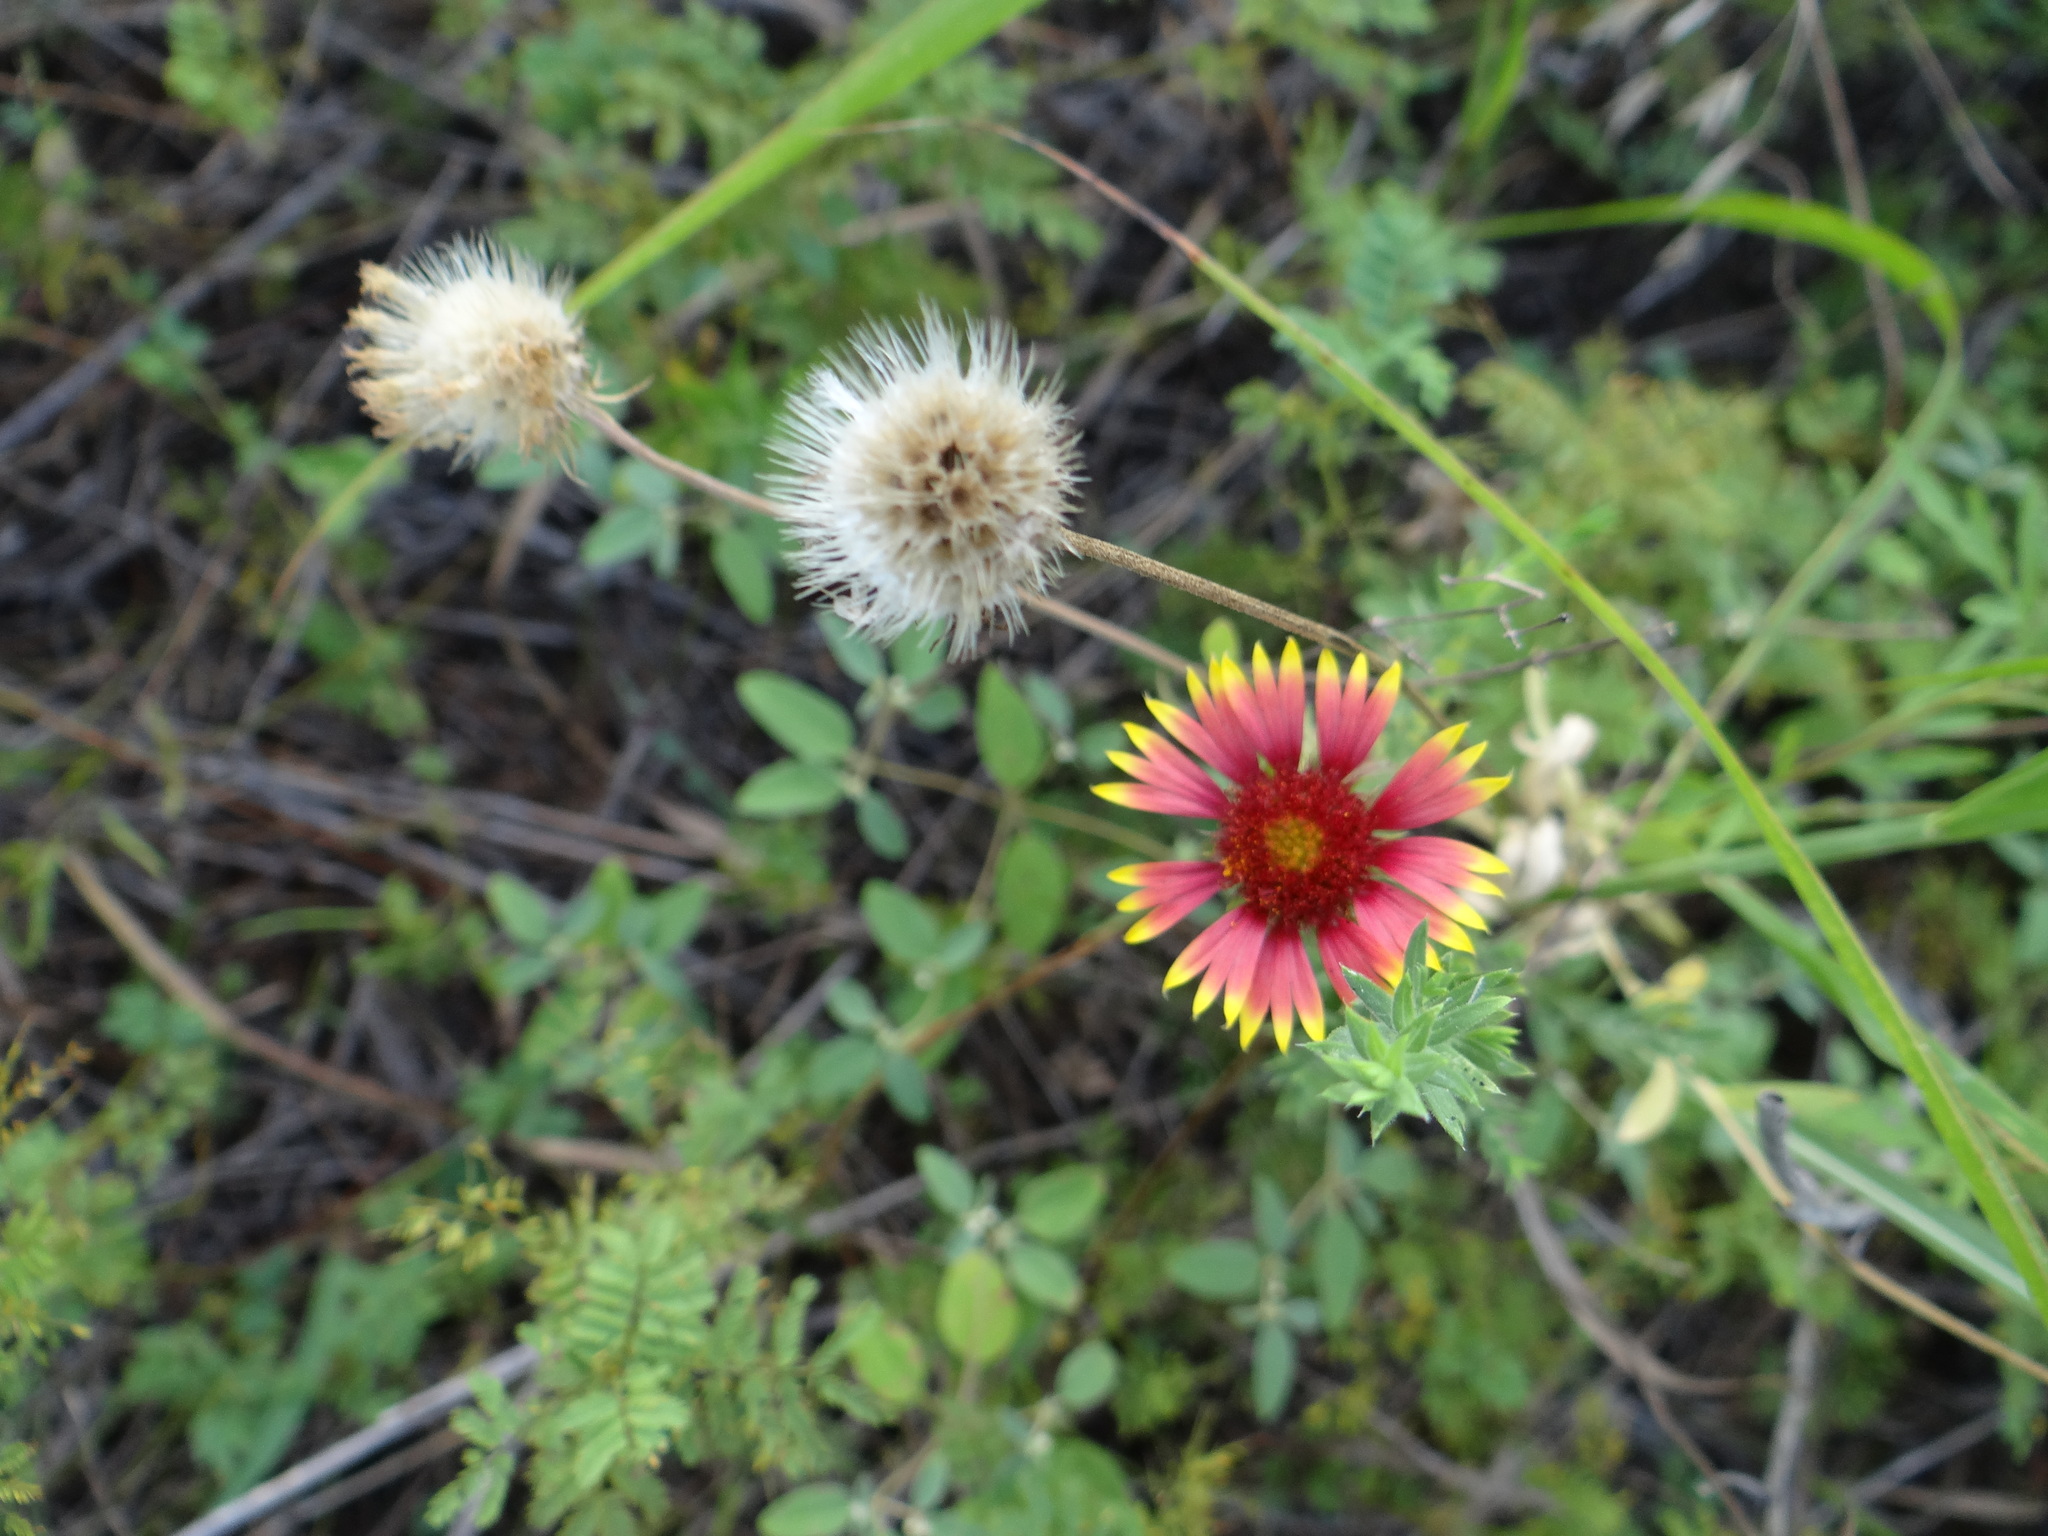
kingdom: Plantae
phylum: Tracheophyta
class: Magnoliopsida
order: Asterales
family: Asteraceae
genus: Gaillardia
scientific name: Gaillardia pulchella
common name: Firewheel
